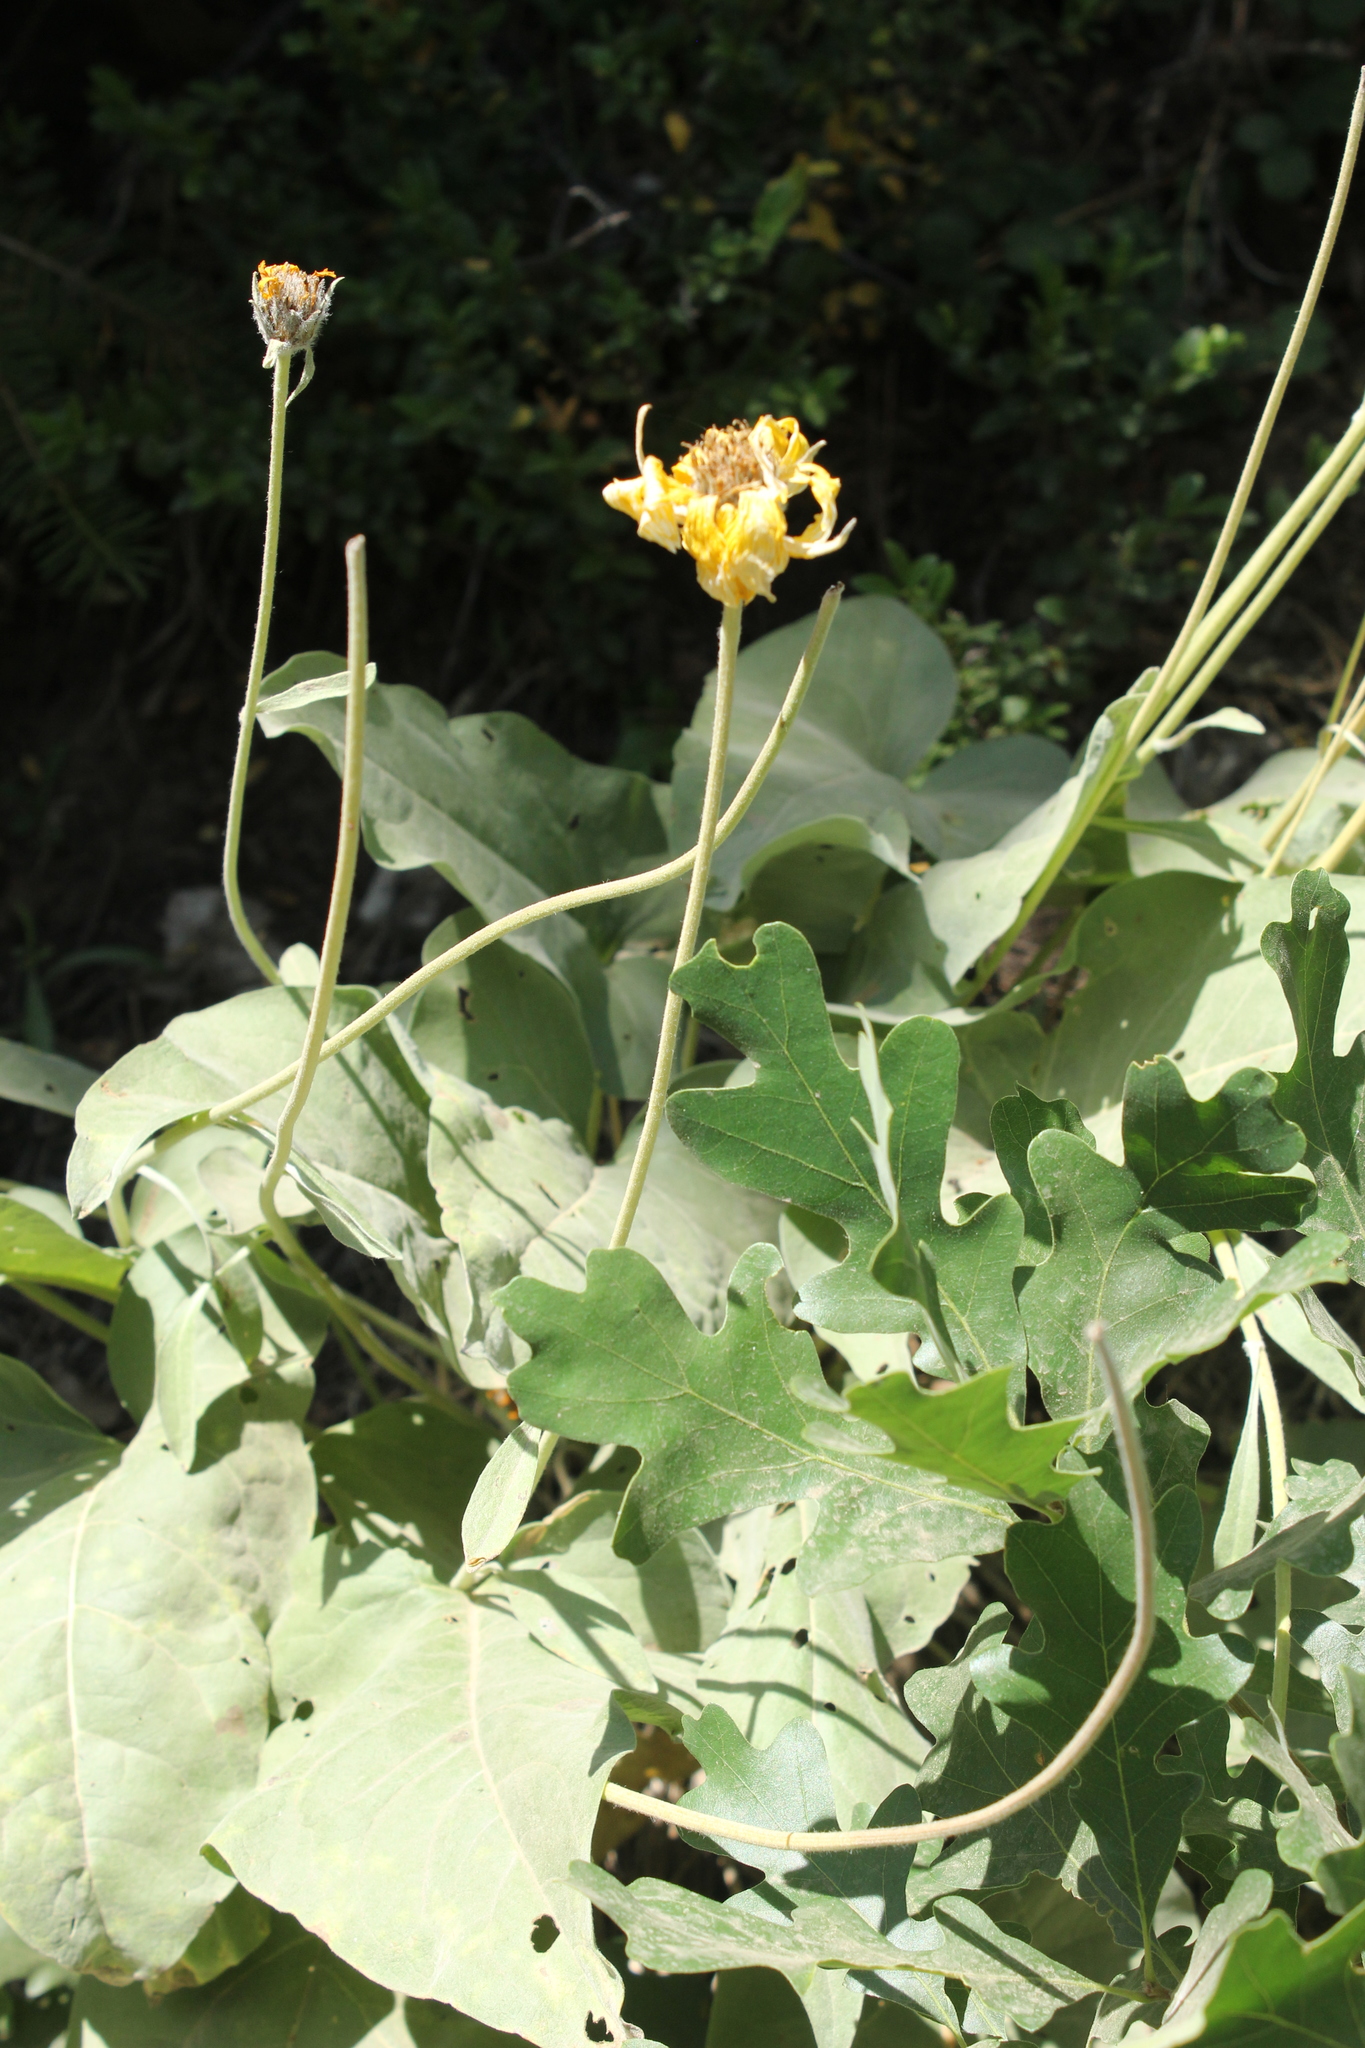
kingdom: Plantae
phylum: Tracheophyta
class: Magnoliopsida
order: Asterales
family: Asteraceae
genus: Wyethia
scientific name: Wyethia sagittata
